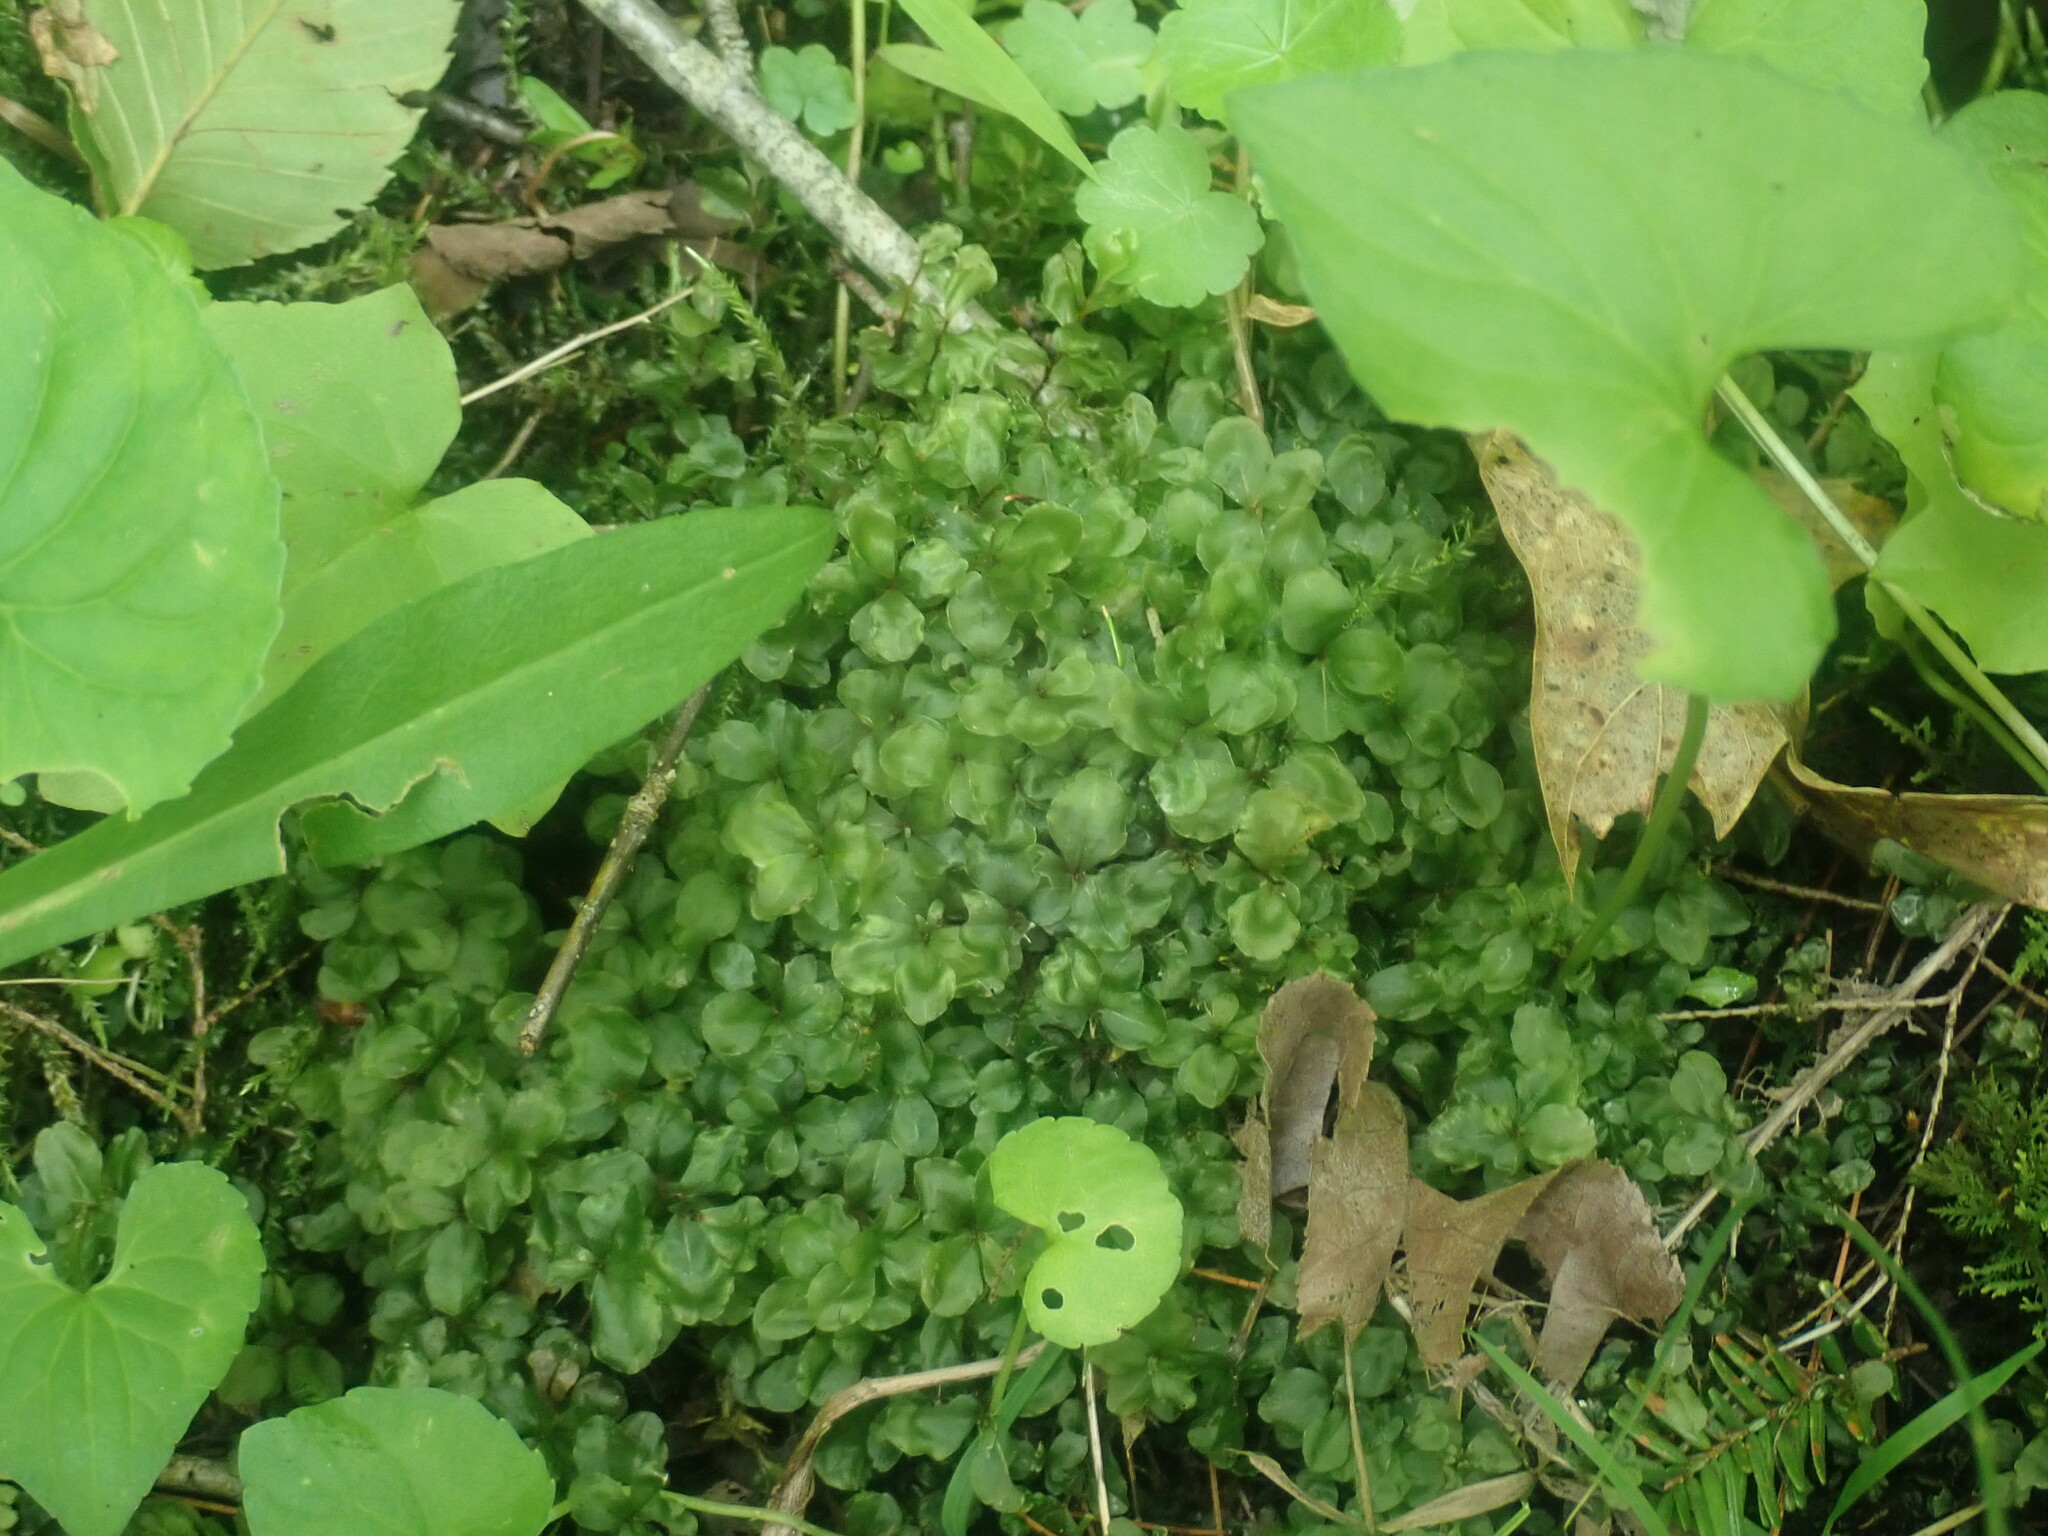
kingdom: Plantae
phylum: Bryophyta
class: Bryopsida
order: Bryales
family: Mniaceae
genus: Rhizomnium
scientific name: Rhizomnium appalachianum
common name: Appalachian leafy moss
